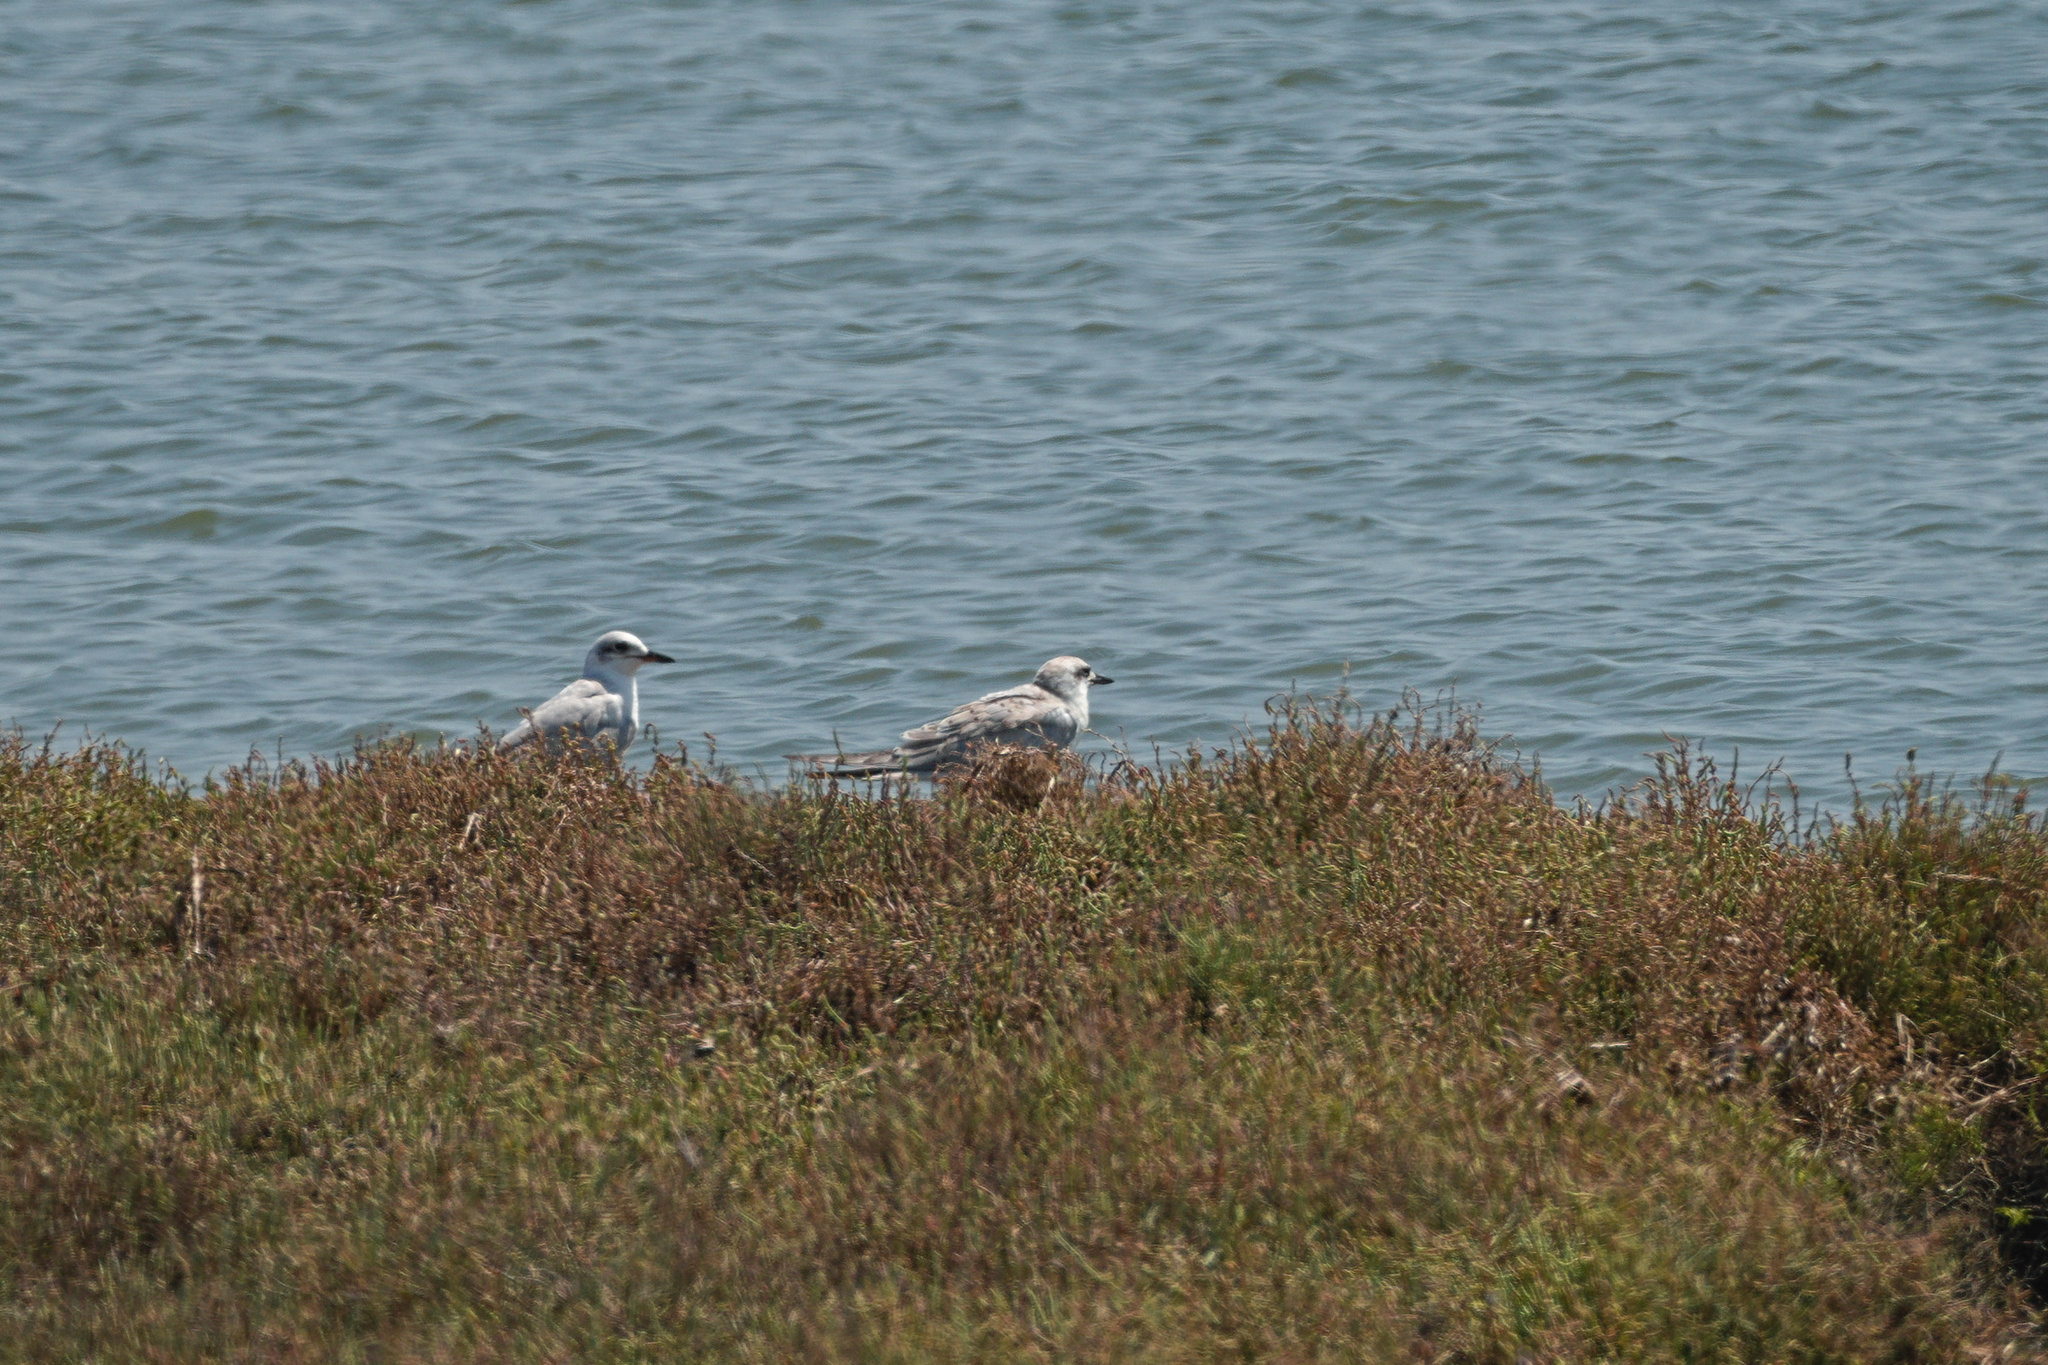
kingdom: Animalia
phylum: Chordata
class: Aves
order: Charadriiformes
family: Laridae
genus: Gelochelidon
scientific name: Gelochelidon nilotica
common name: Gull-billed tern
